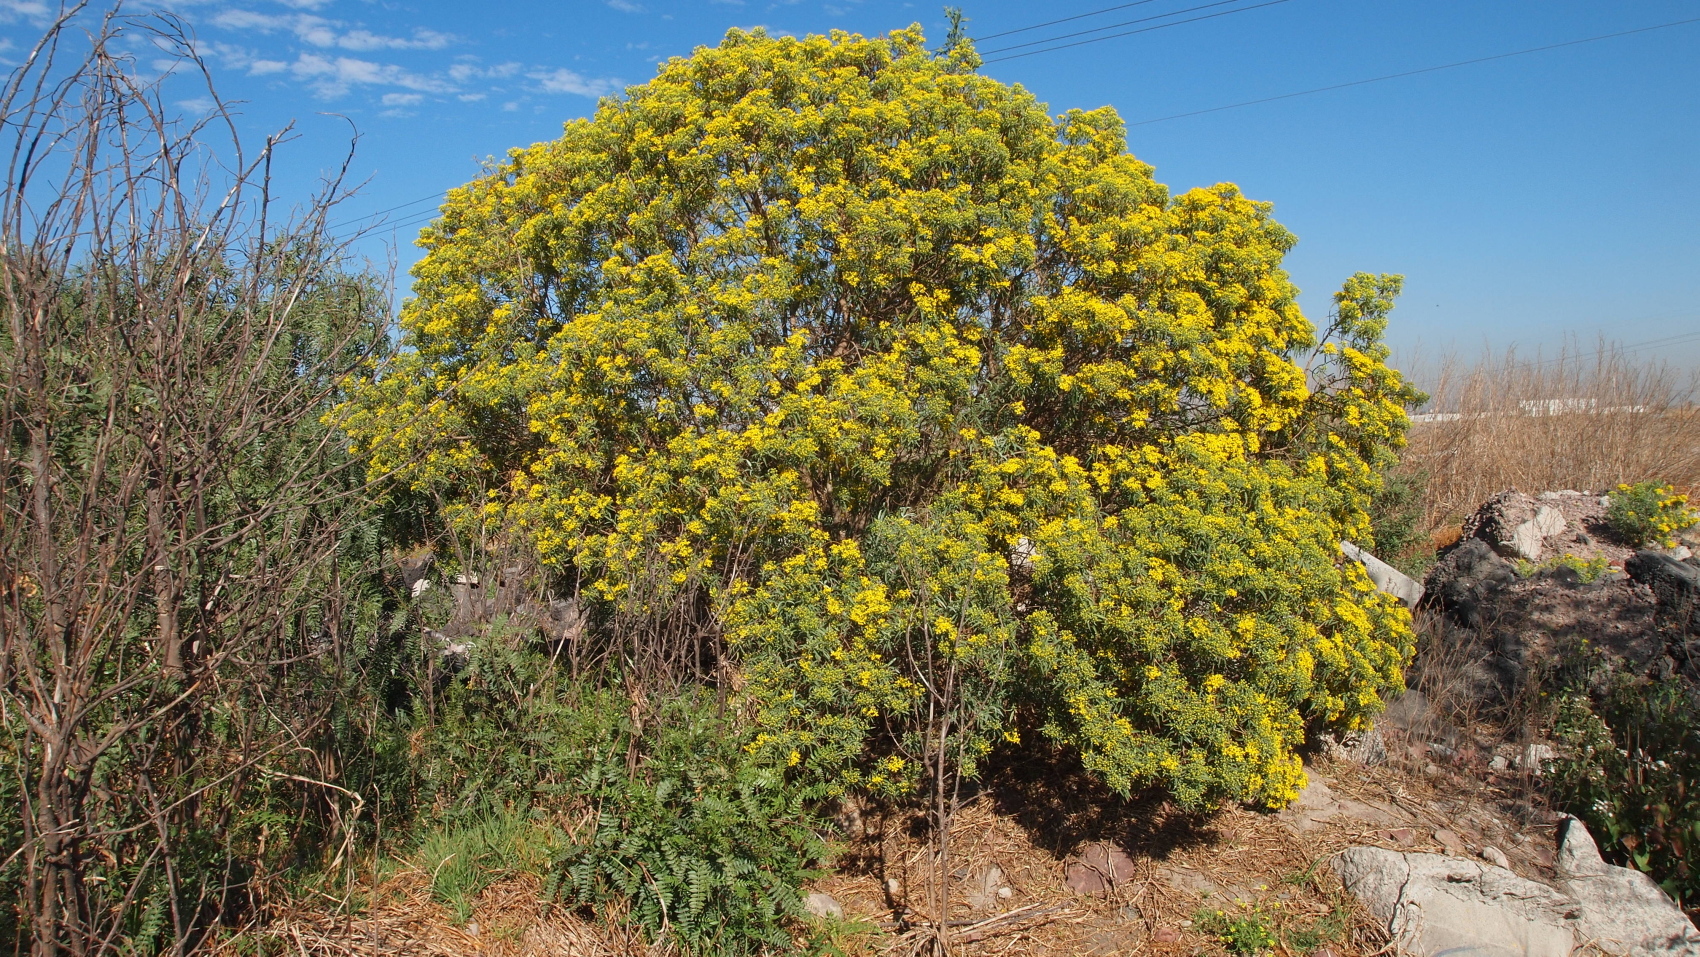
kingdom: Plantae
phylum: Tracheophyta
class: Magnoliopsida
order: Asterales
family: Asteraceae
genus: Barkleyanthus
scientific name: Barkleyanthus salicifolius
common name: Willow ragwort
